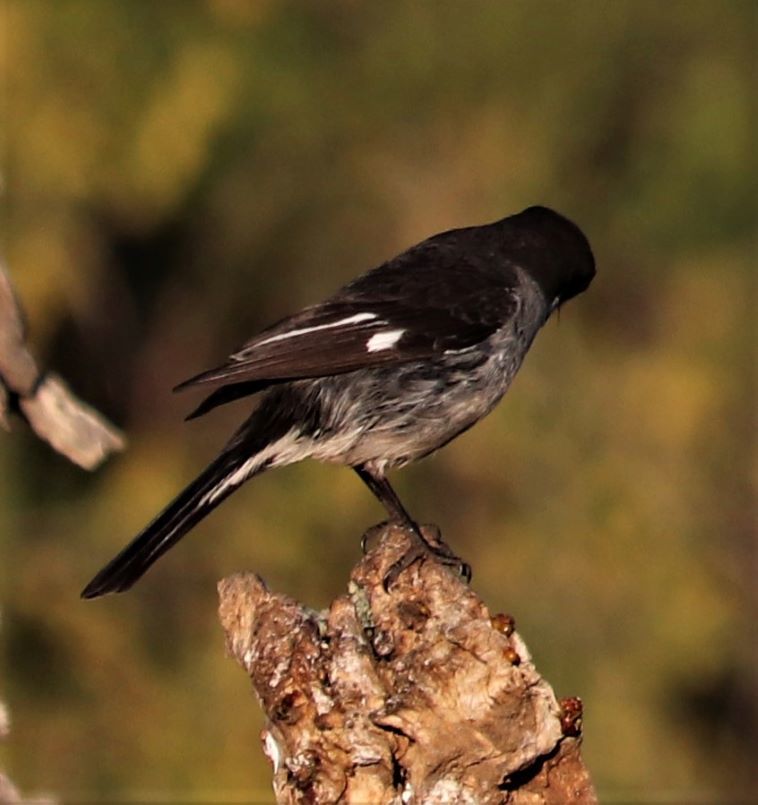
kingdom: Animalia
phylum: Chordata
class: Aves
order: Passeriformes
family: Muscicapidae
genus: Sigelus
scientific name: Sigelus silens
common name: Fiscal flycatcher
